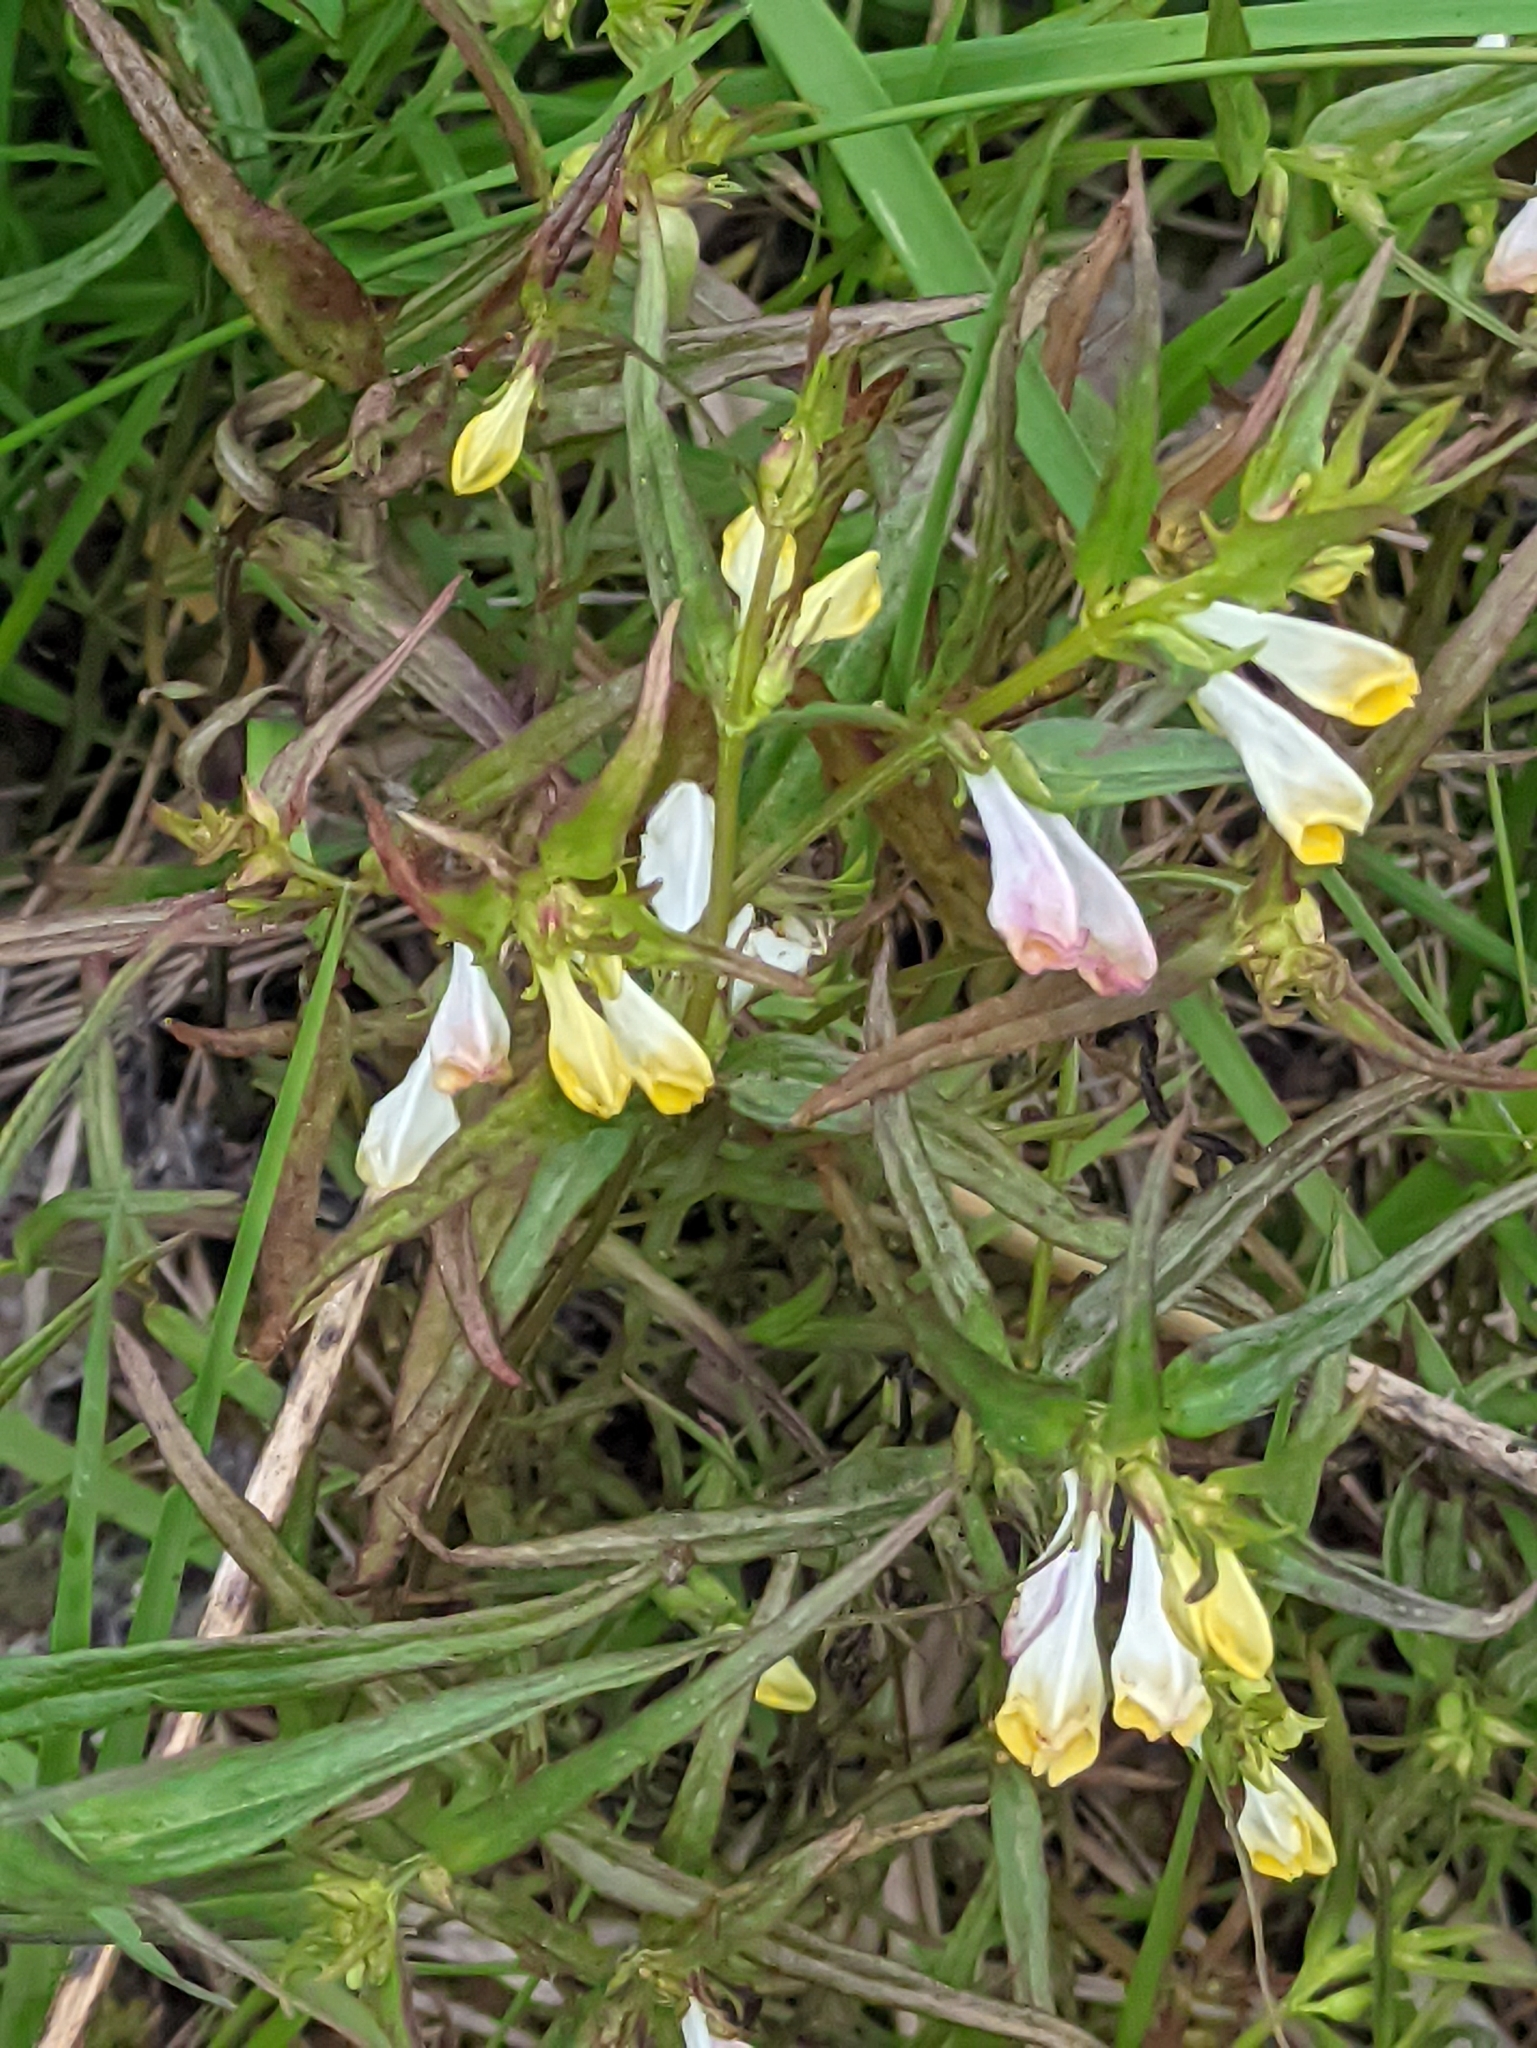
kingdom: Plantae
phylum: Tracheophyta
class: Magnoliopsida
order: Lamiales
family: Orobanchaceae
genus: Melampyrum
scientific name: Melampyrum pratense
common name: Common cow-wheat
